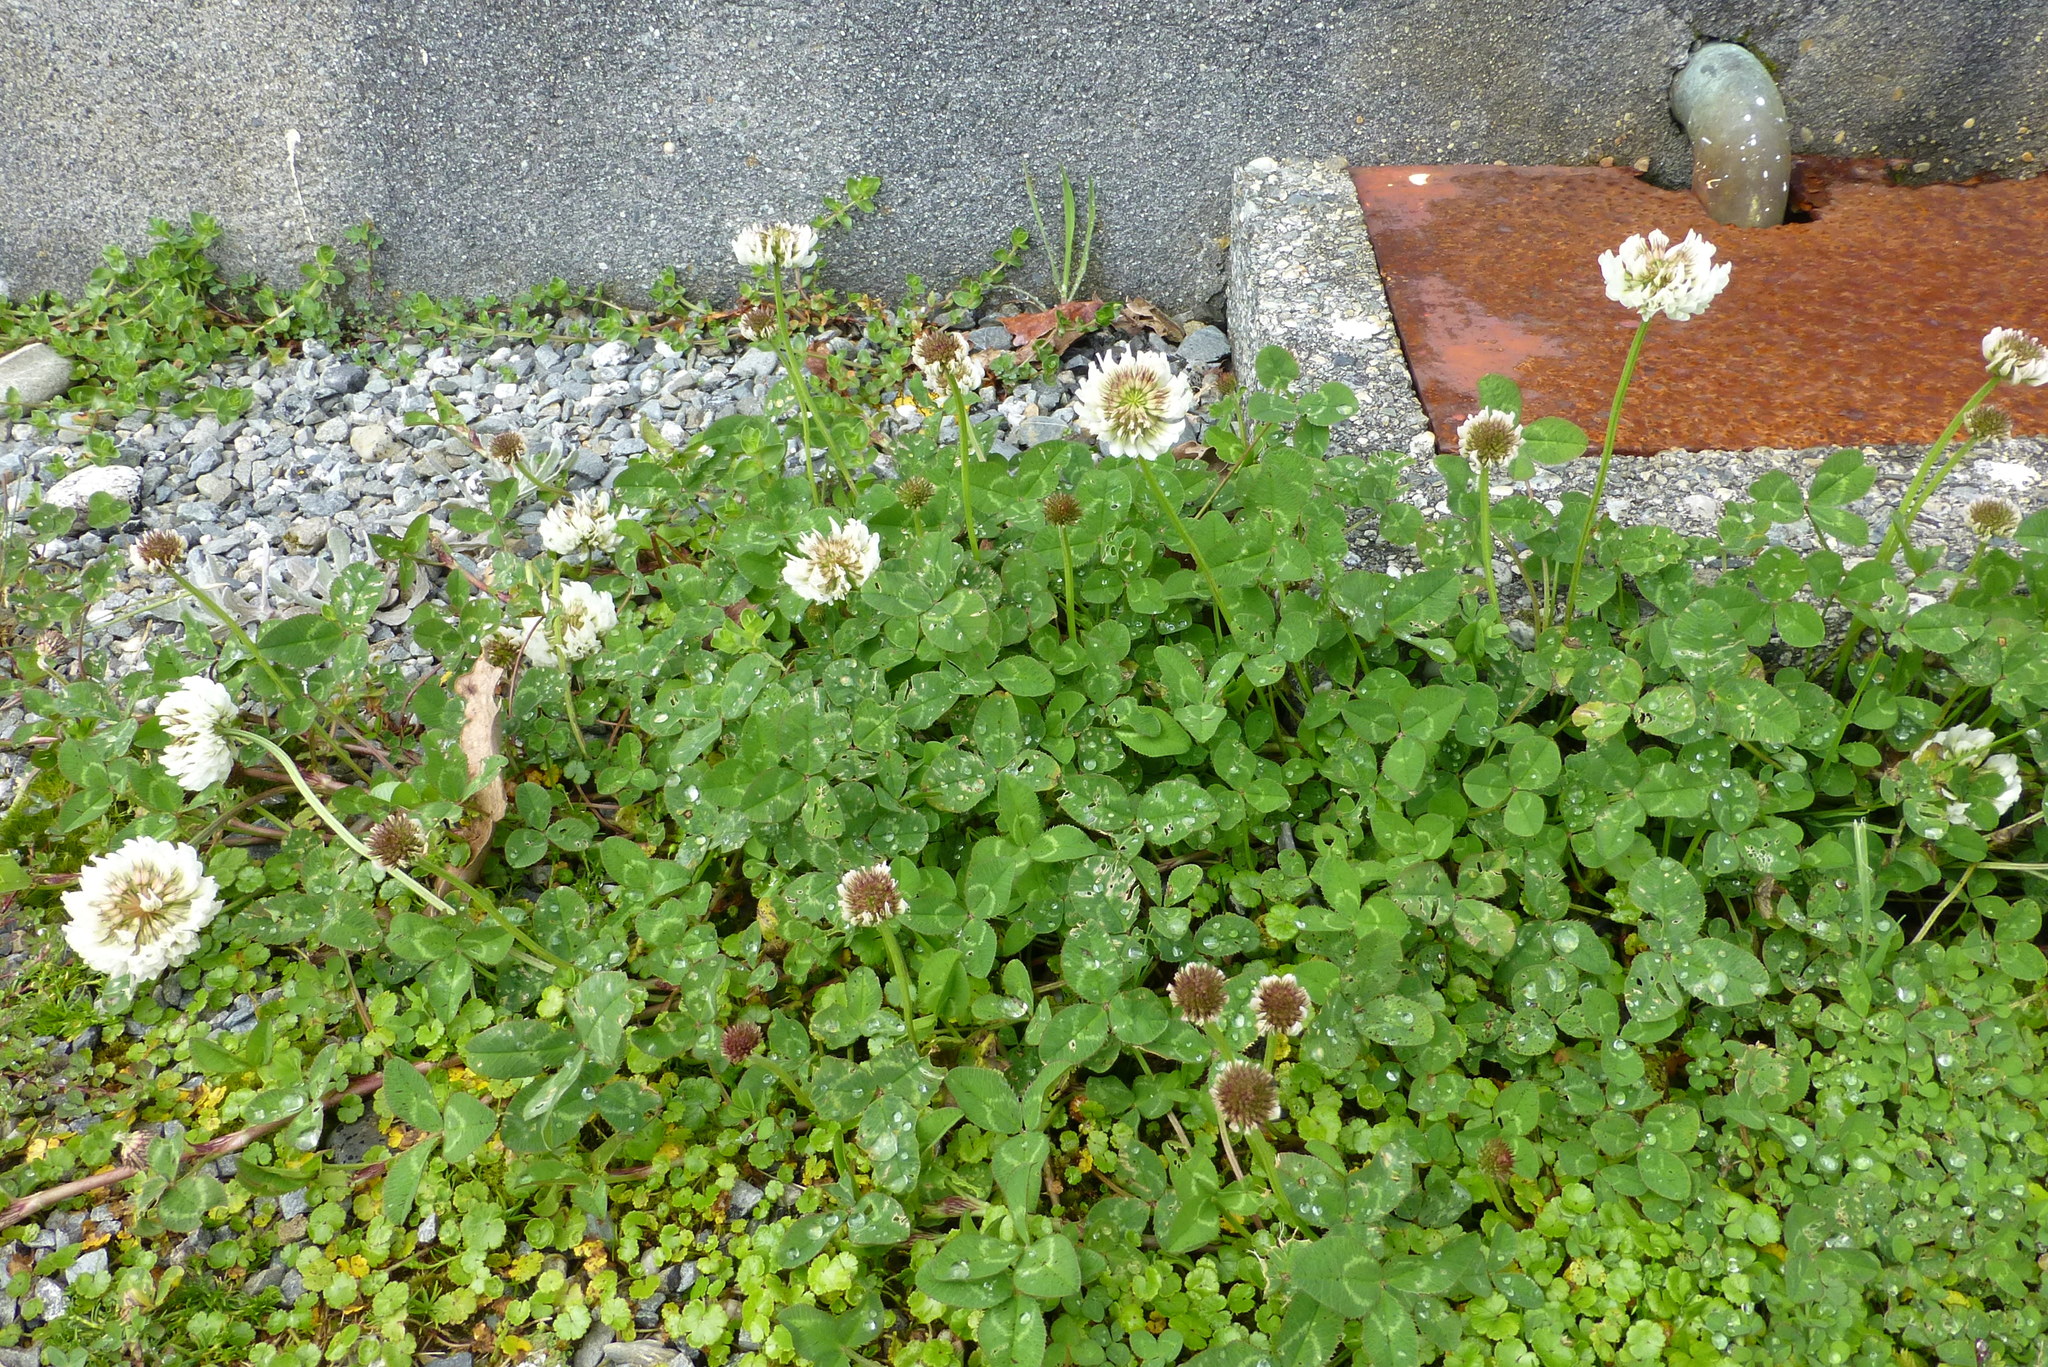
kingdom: Plantae
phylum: Tracheophyta
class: Magnoliopsida
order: Fabales
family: Fabaceae
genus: Trifolium
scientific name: Trifolium repens
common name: White clover
